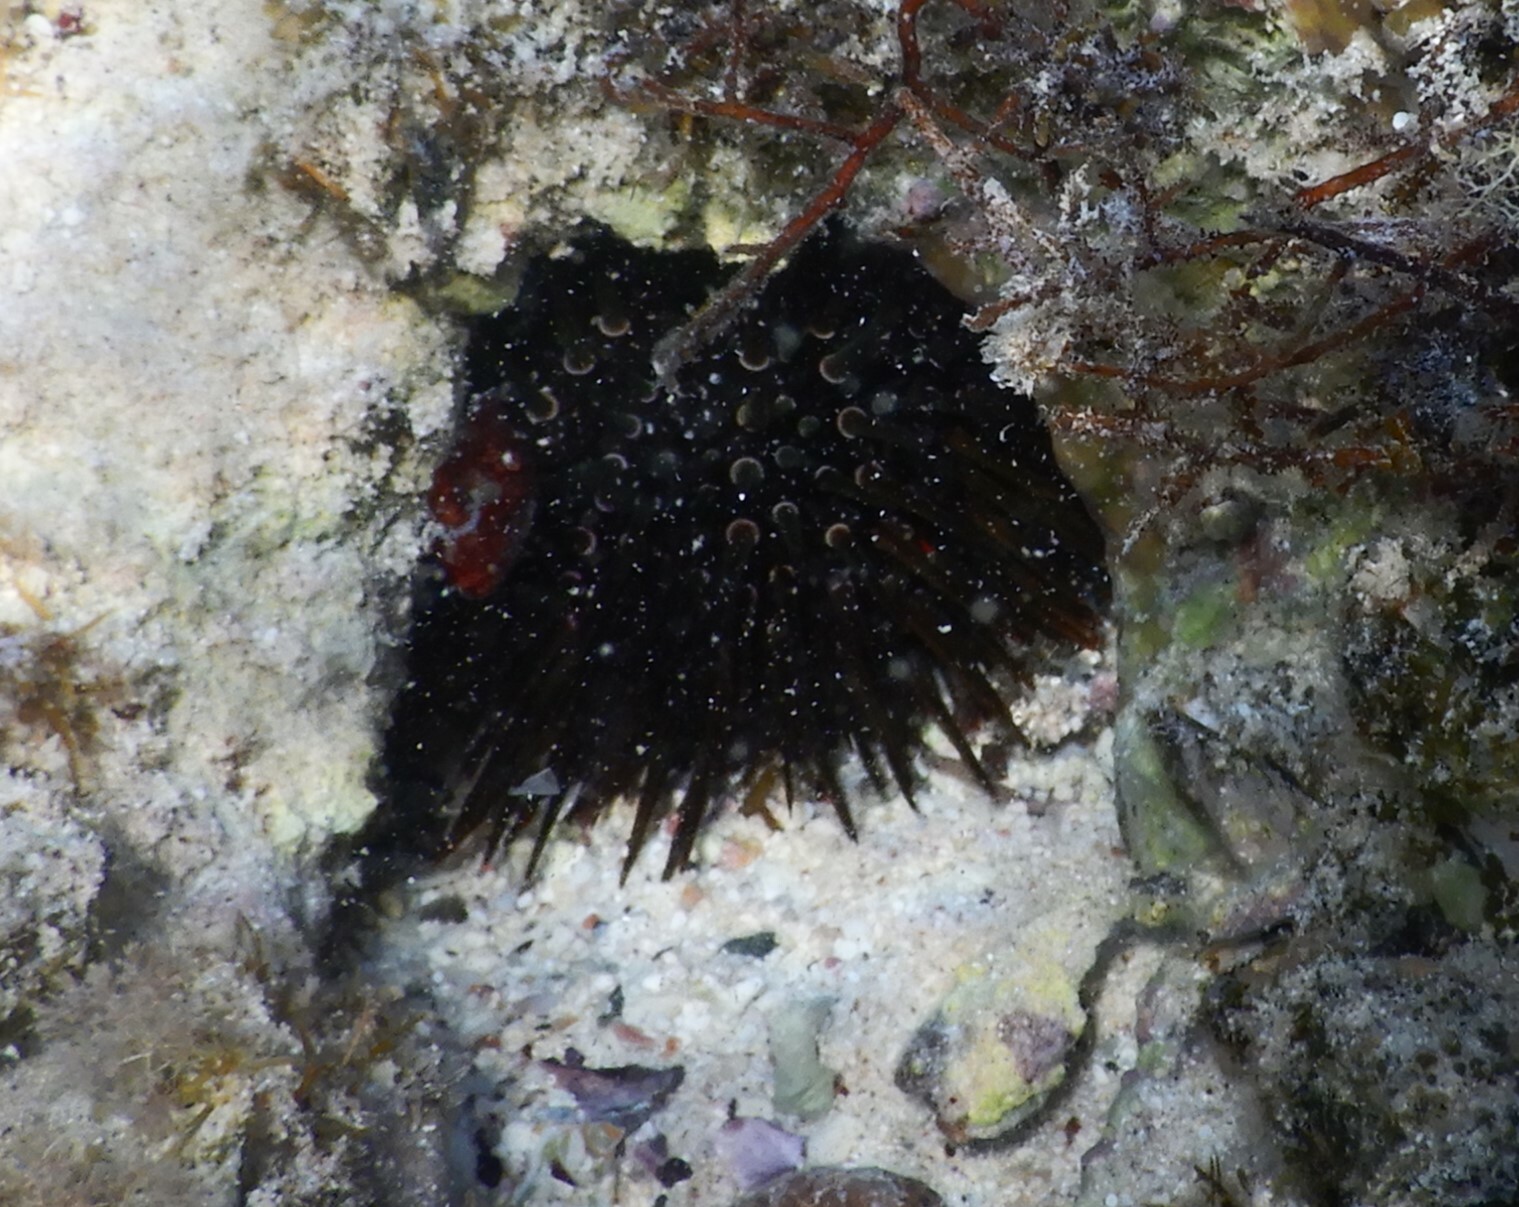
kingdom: Animalia
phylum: Echinodermata
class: Echinoidea
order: Camarodonta
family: Echinometridae
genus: Echinometra
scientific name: Echinometra mathaei
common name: Rock-boring urchin
